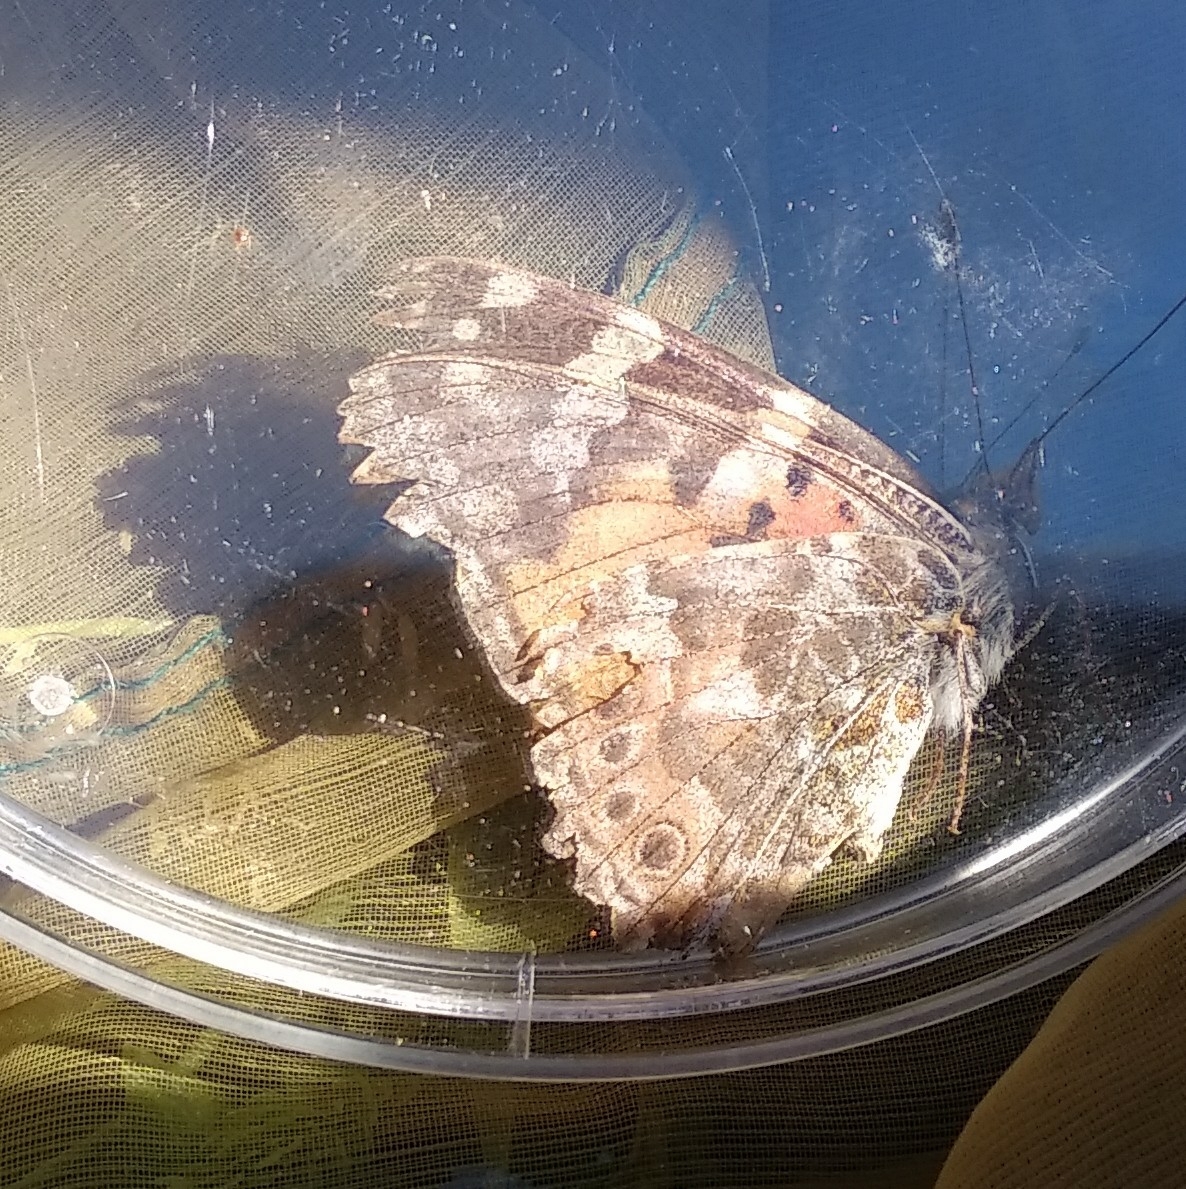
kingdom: Animalia
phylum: Arthropoda
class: Insecta
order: Lepidoptera
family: Nymphalidae
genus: Vanessa
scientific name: Vanessa cardui
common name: Painted lady
